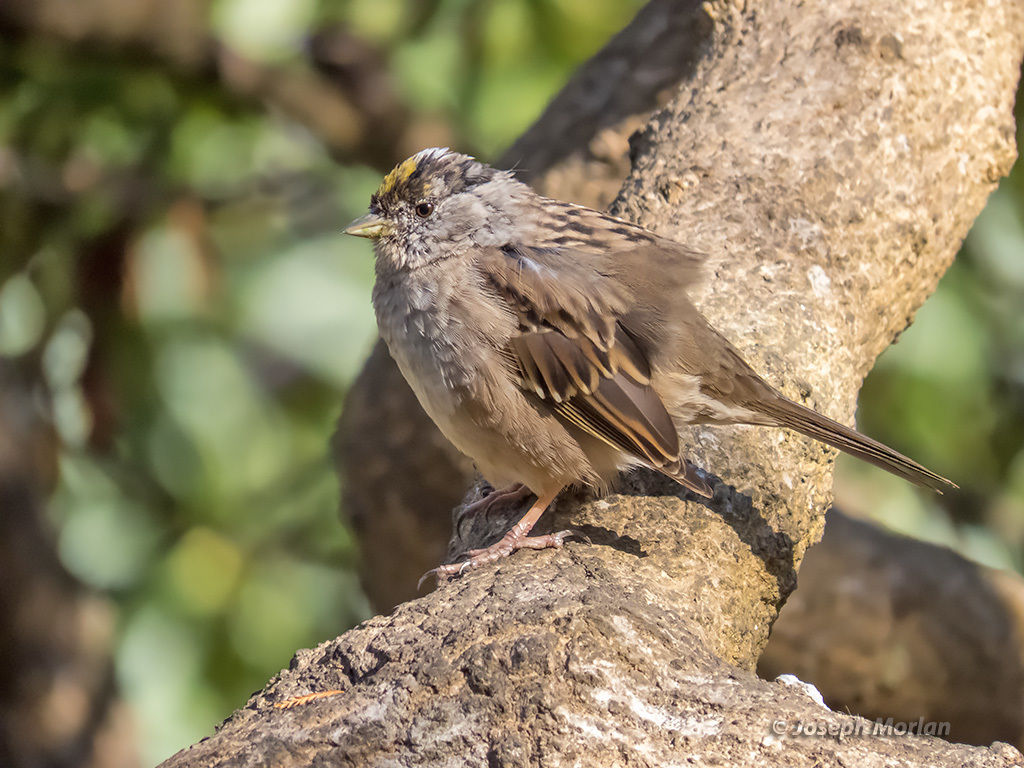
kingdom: Animalia
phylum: Chordata
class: Aves
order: Passeriformes
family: Passerellidae
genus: Zonotrichia
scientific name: Zonotrichia atricapilla
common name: Golden-crowned sparrow
